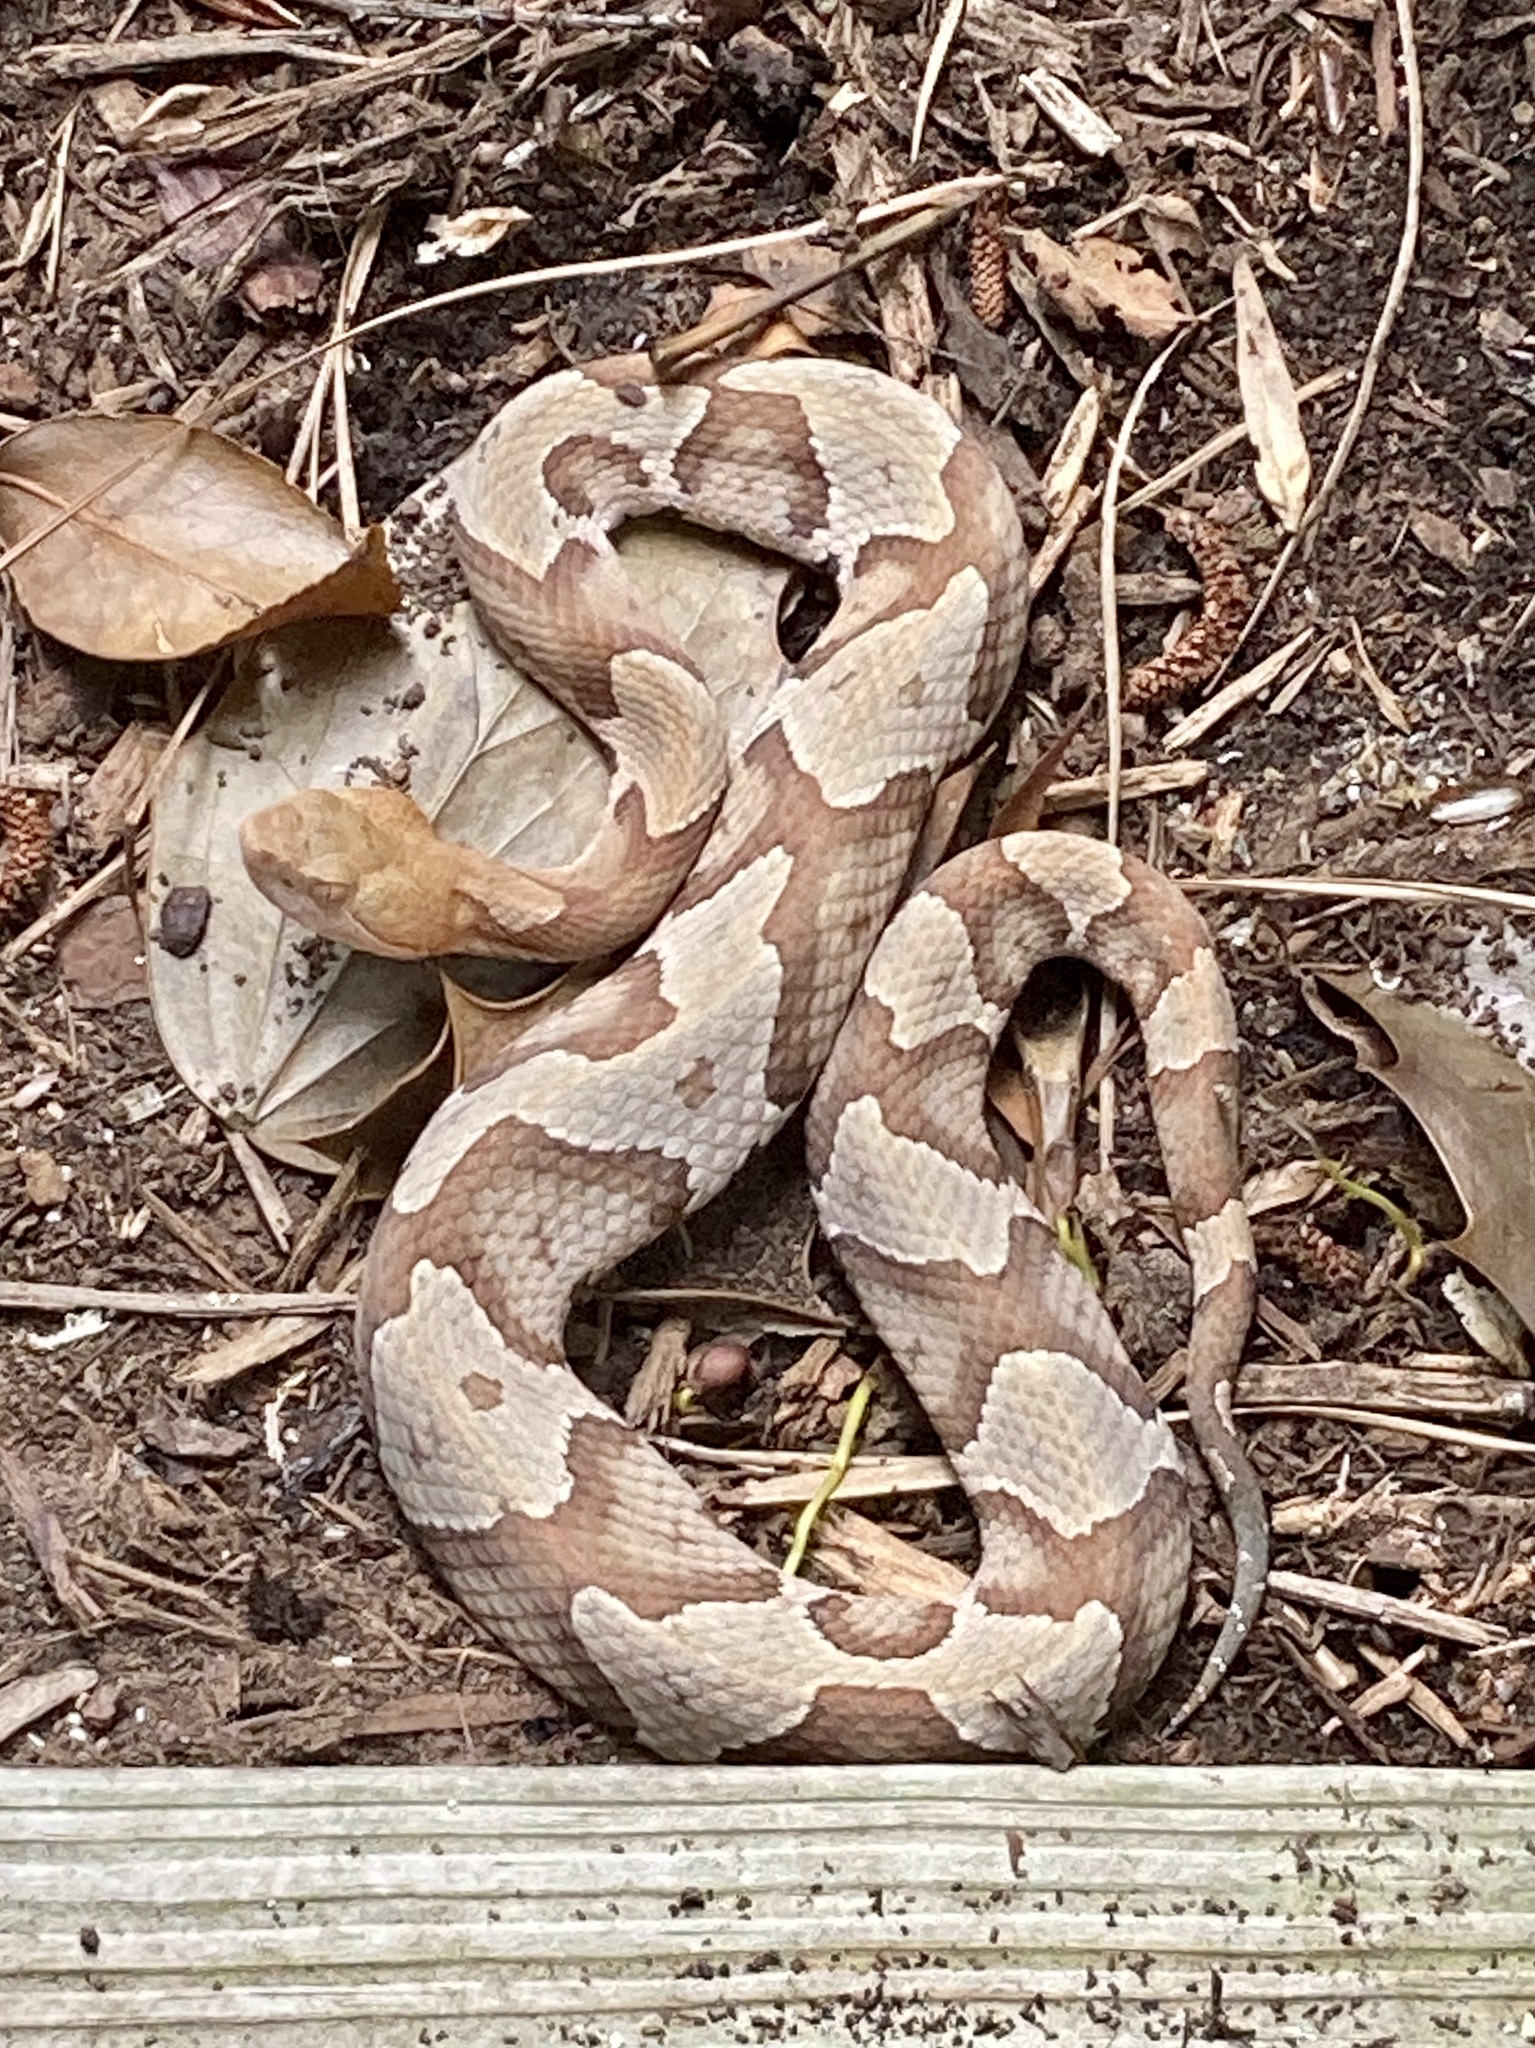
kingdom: Animalia
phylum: Chordata
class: Squamata
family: Viperidae
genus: Agkistrodon
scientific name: Agkistrodon contortrix
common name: Northern copperhead
